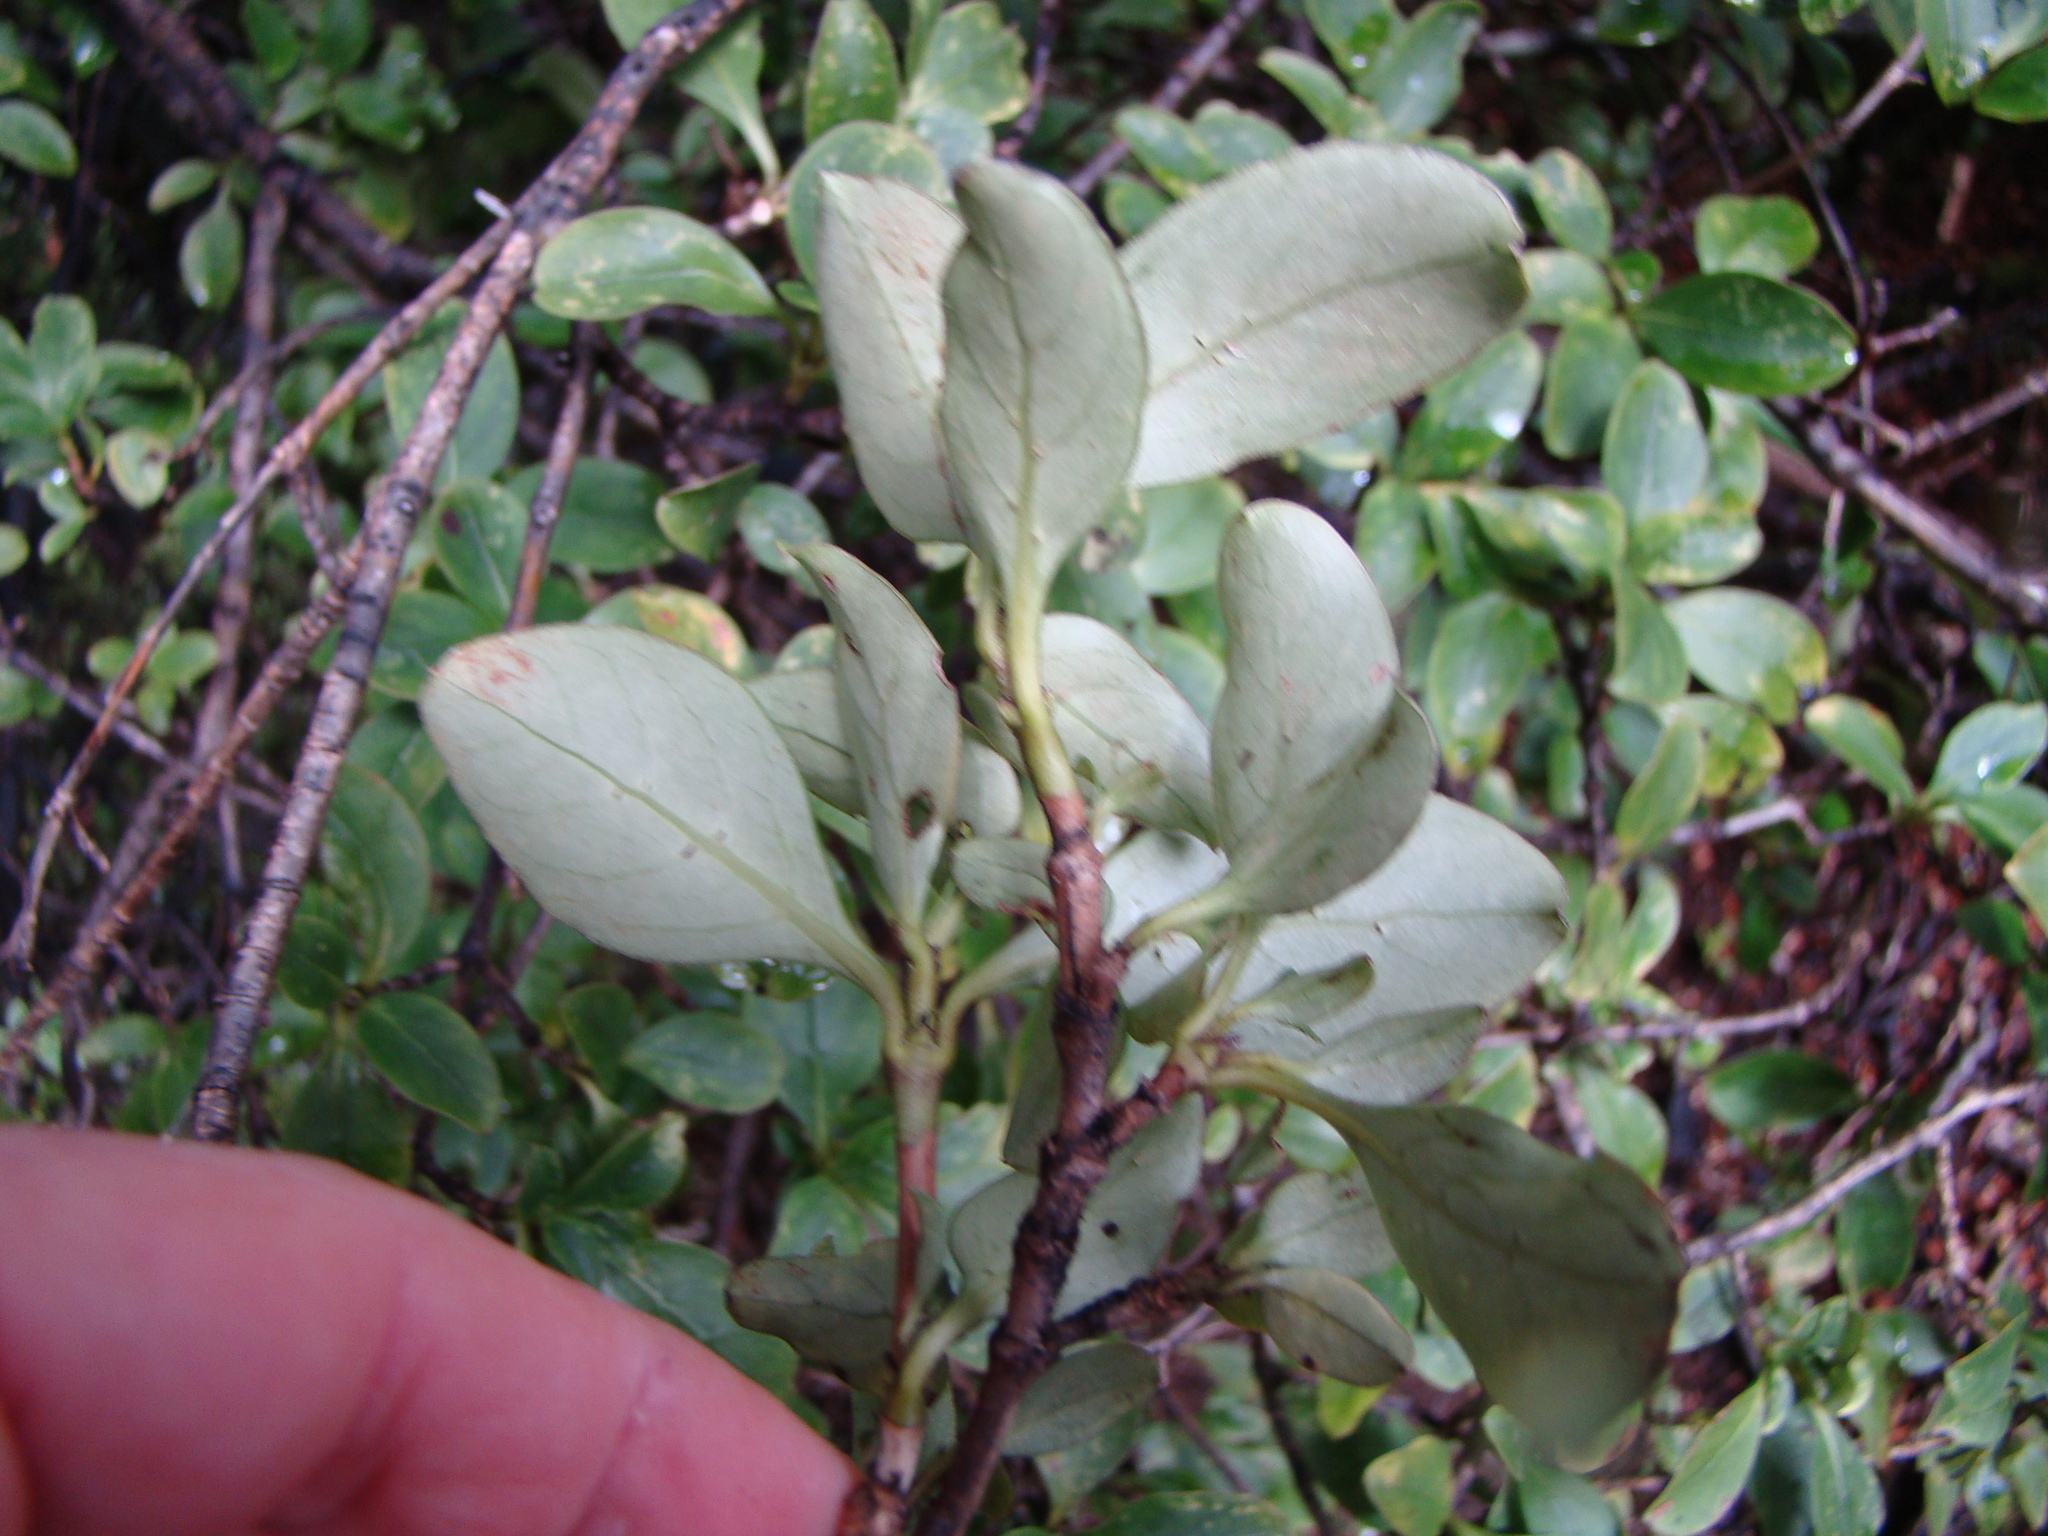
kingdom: Plantae
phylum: Tracheophyta
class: Magnoliopsida
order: Gentianales
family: Rubiaceae
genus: Coprosma
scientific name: Coprosma foetidissima
